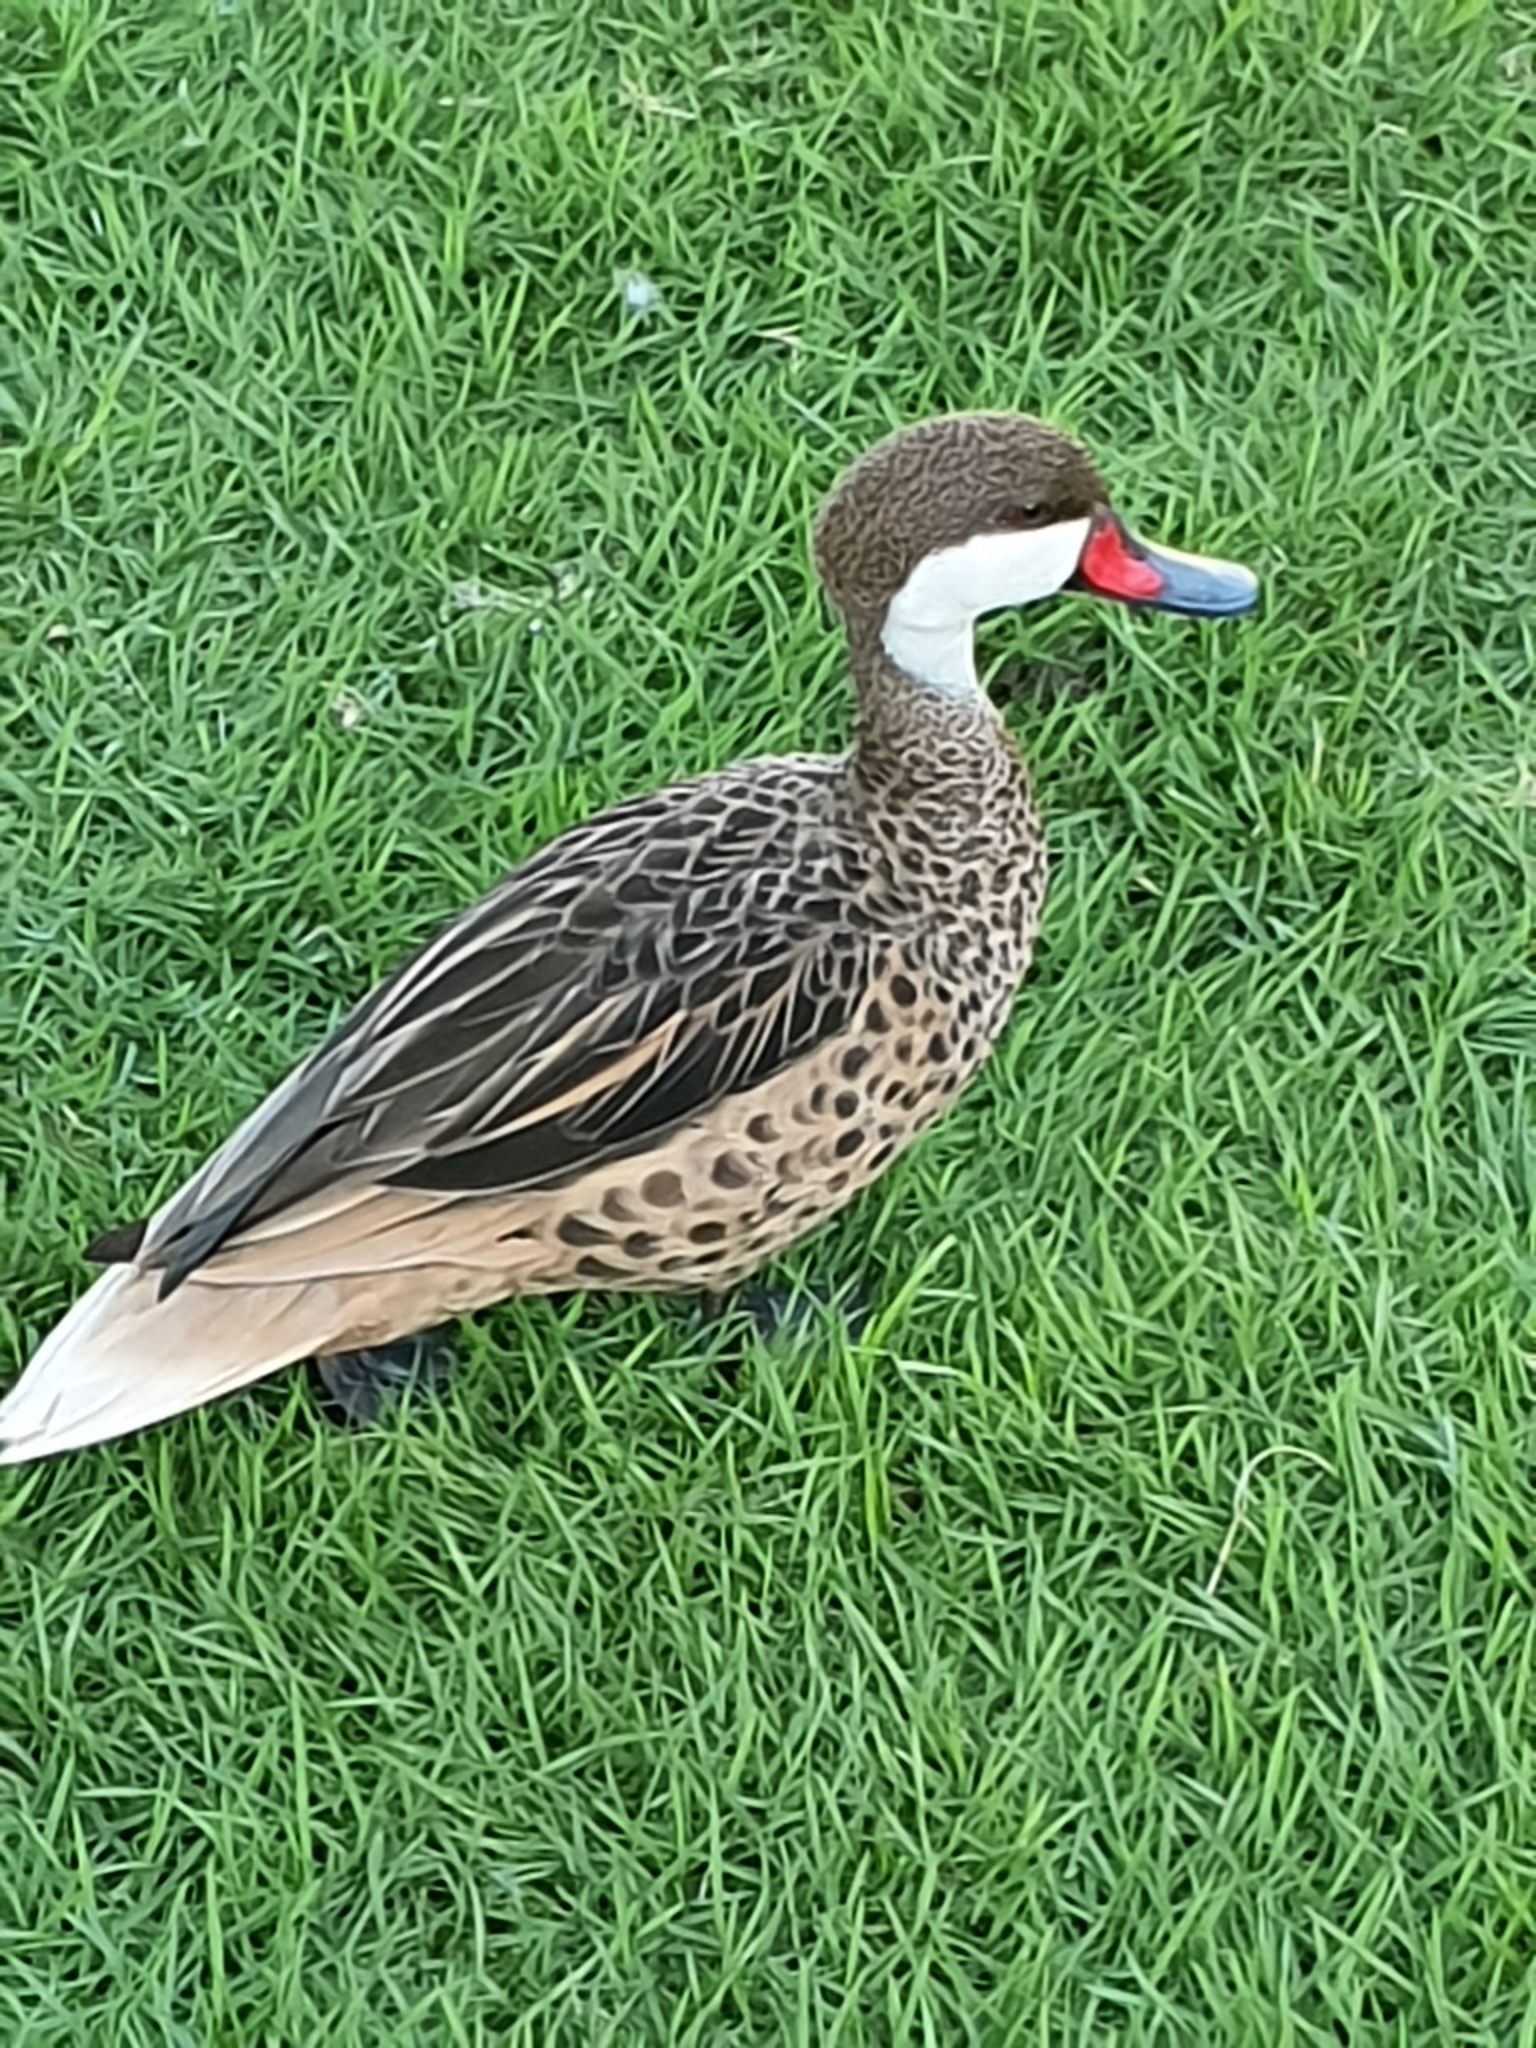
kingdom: Animalia
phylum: Chordata
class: Aves
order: Anseriformes
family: Anatidae
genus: Anas
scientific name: Anas bahamensis
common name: White-cheeked pintail
